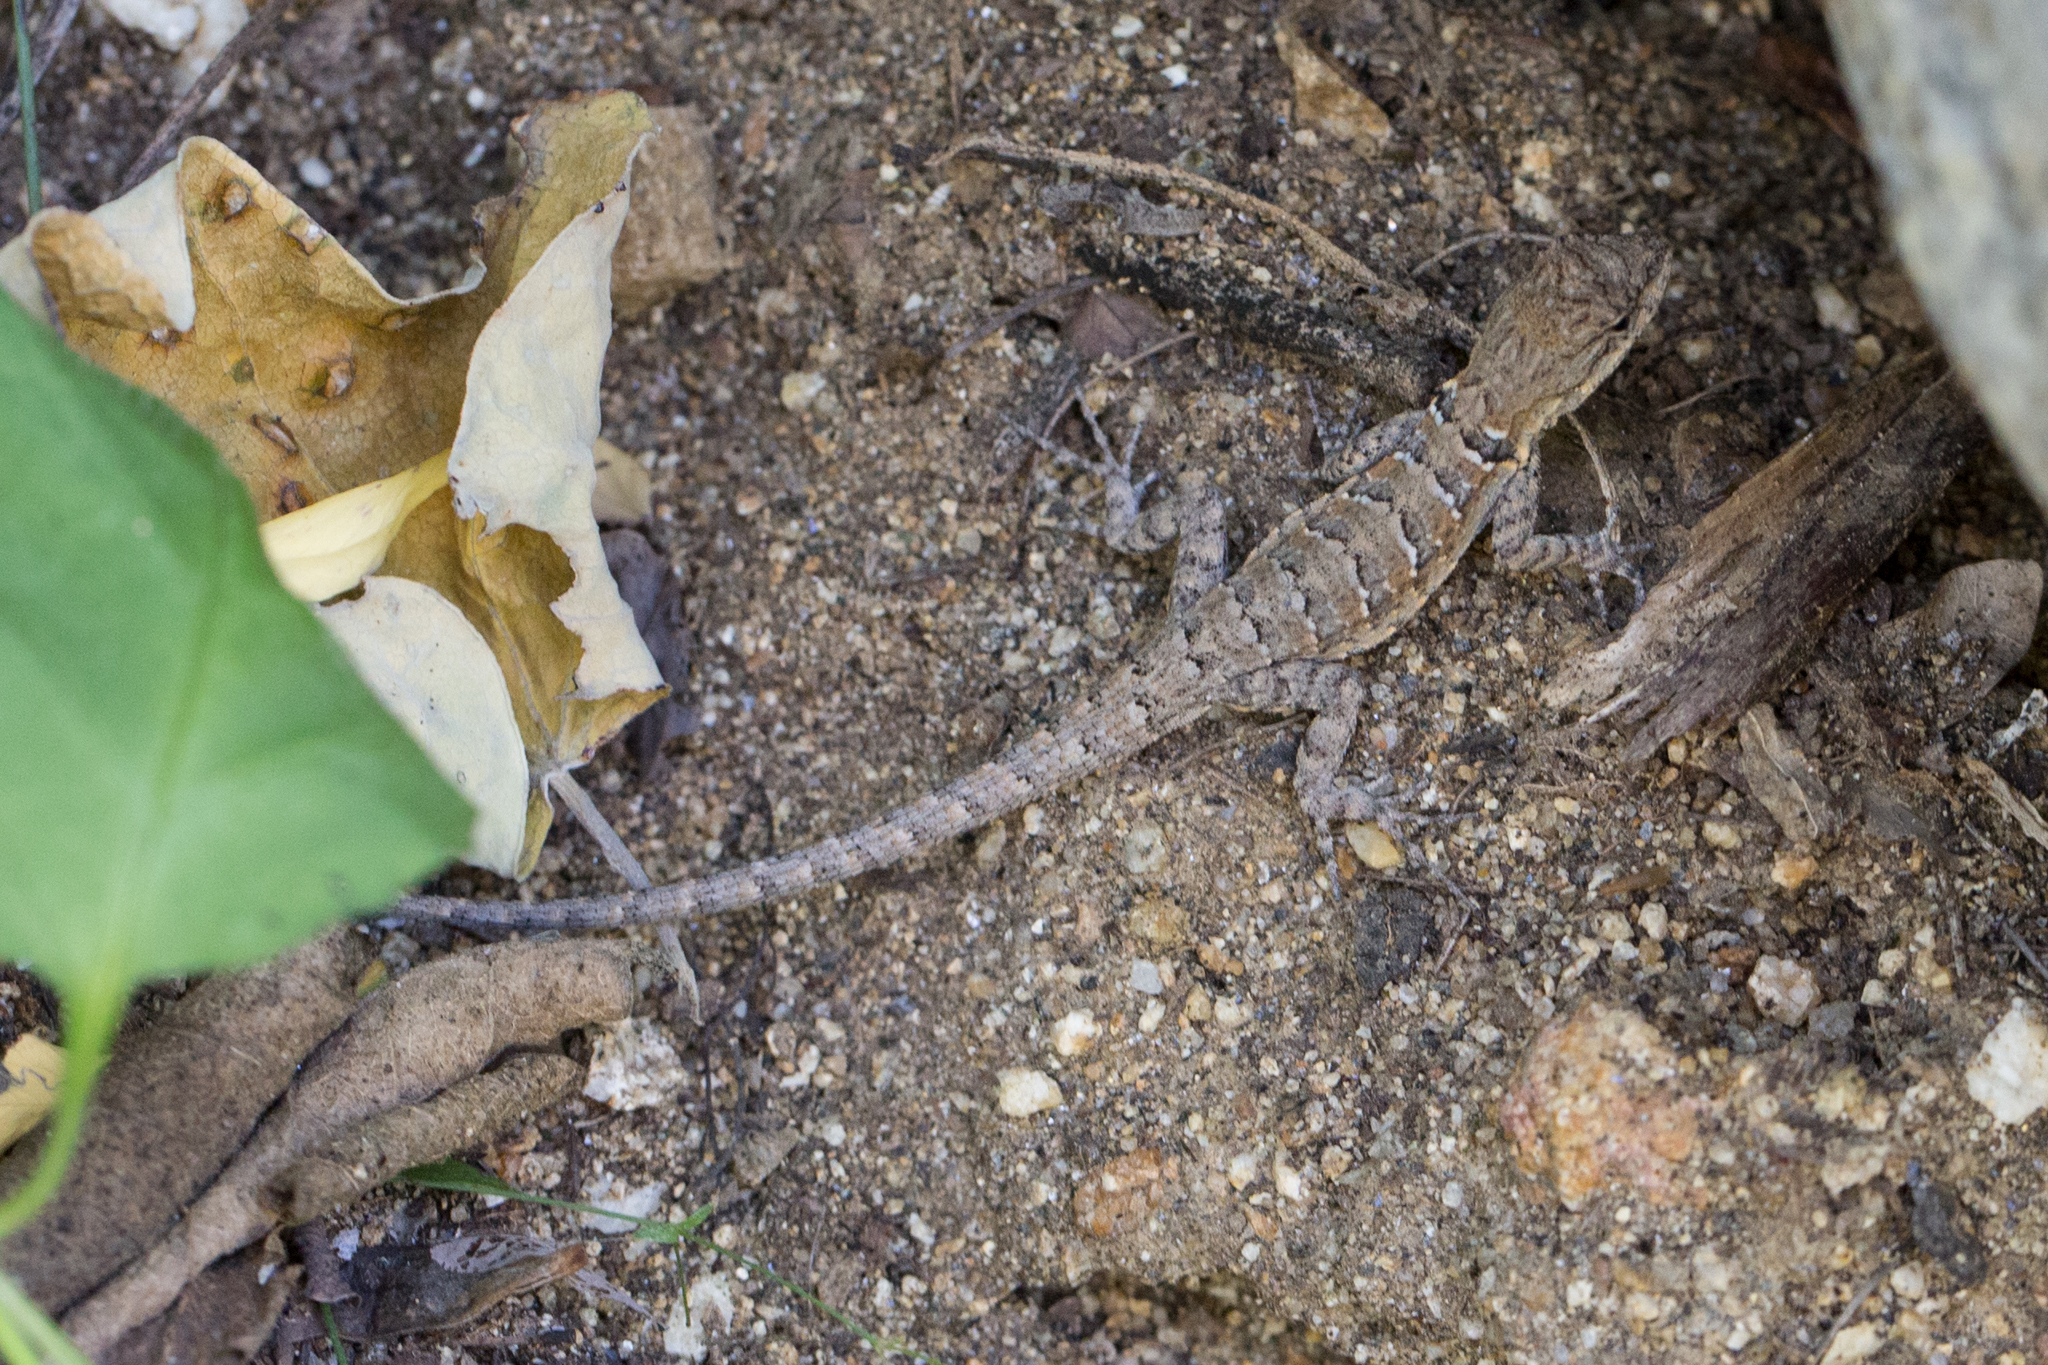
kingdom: Animalia
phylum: Chordata
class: Squamata
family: Phrynosomatidae
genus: Urosaurus
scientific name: Urosaurus nigricauda
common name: Baja california brush lizard
